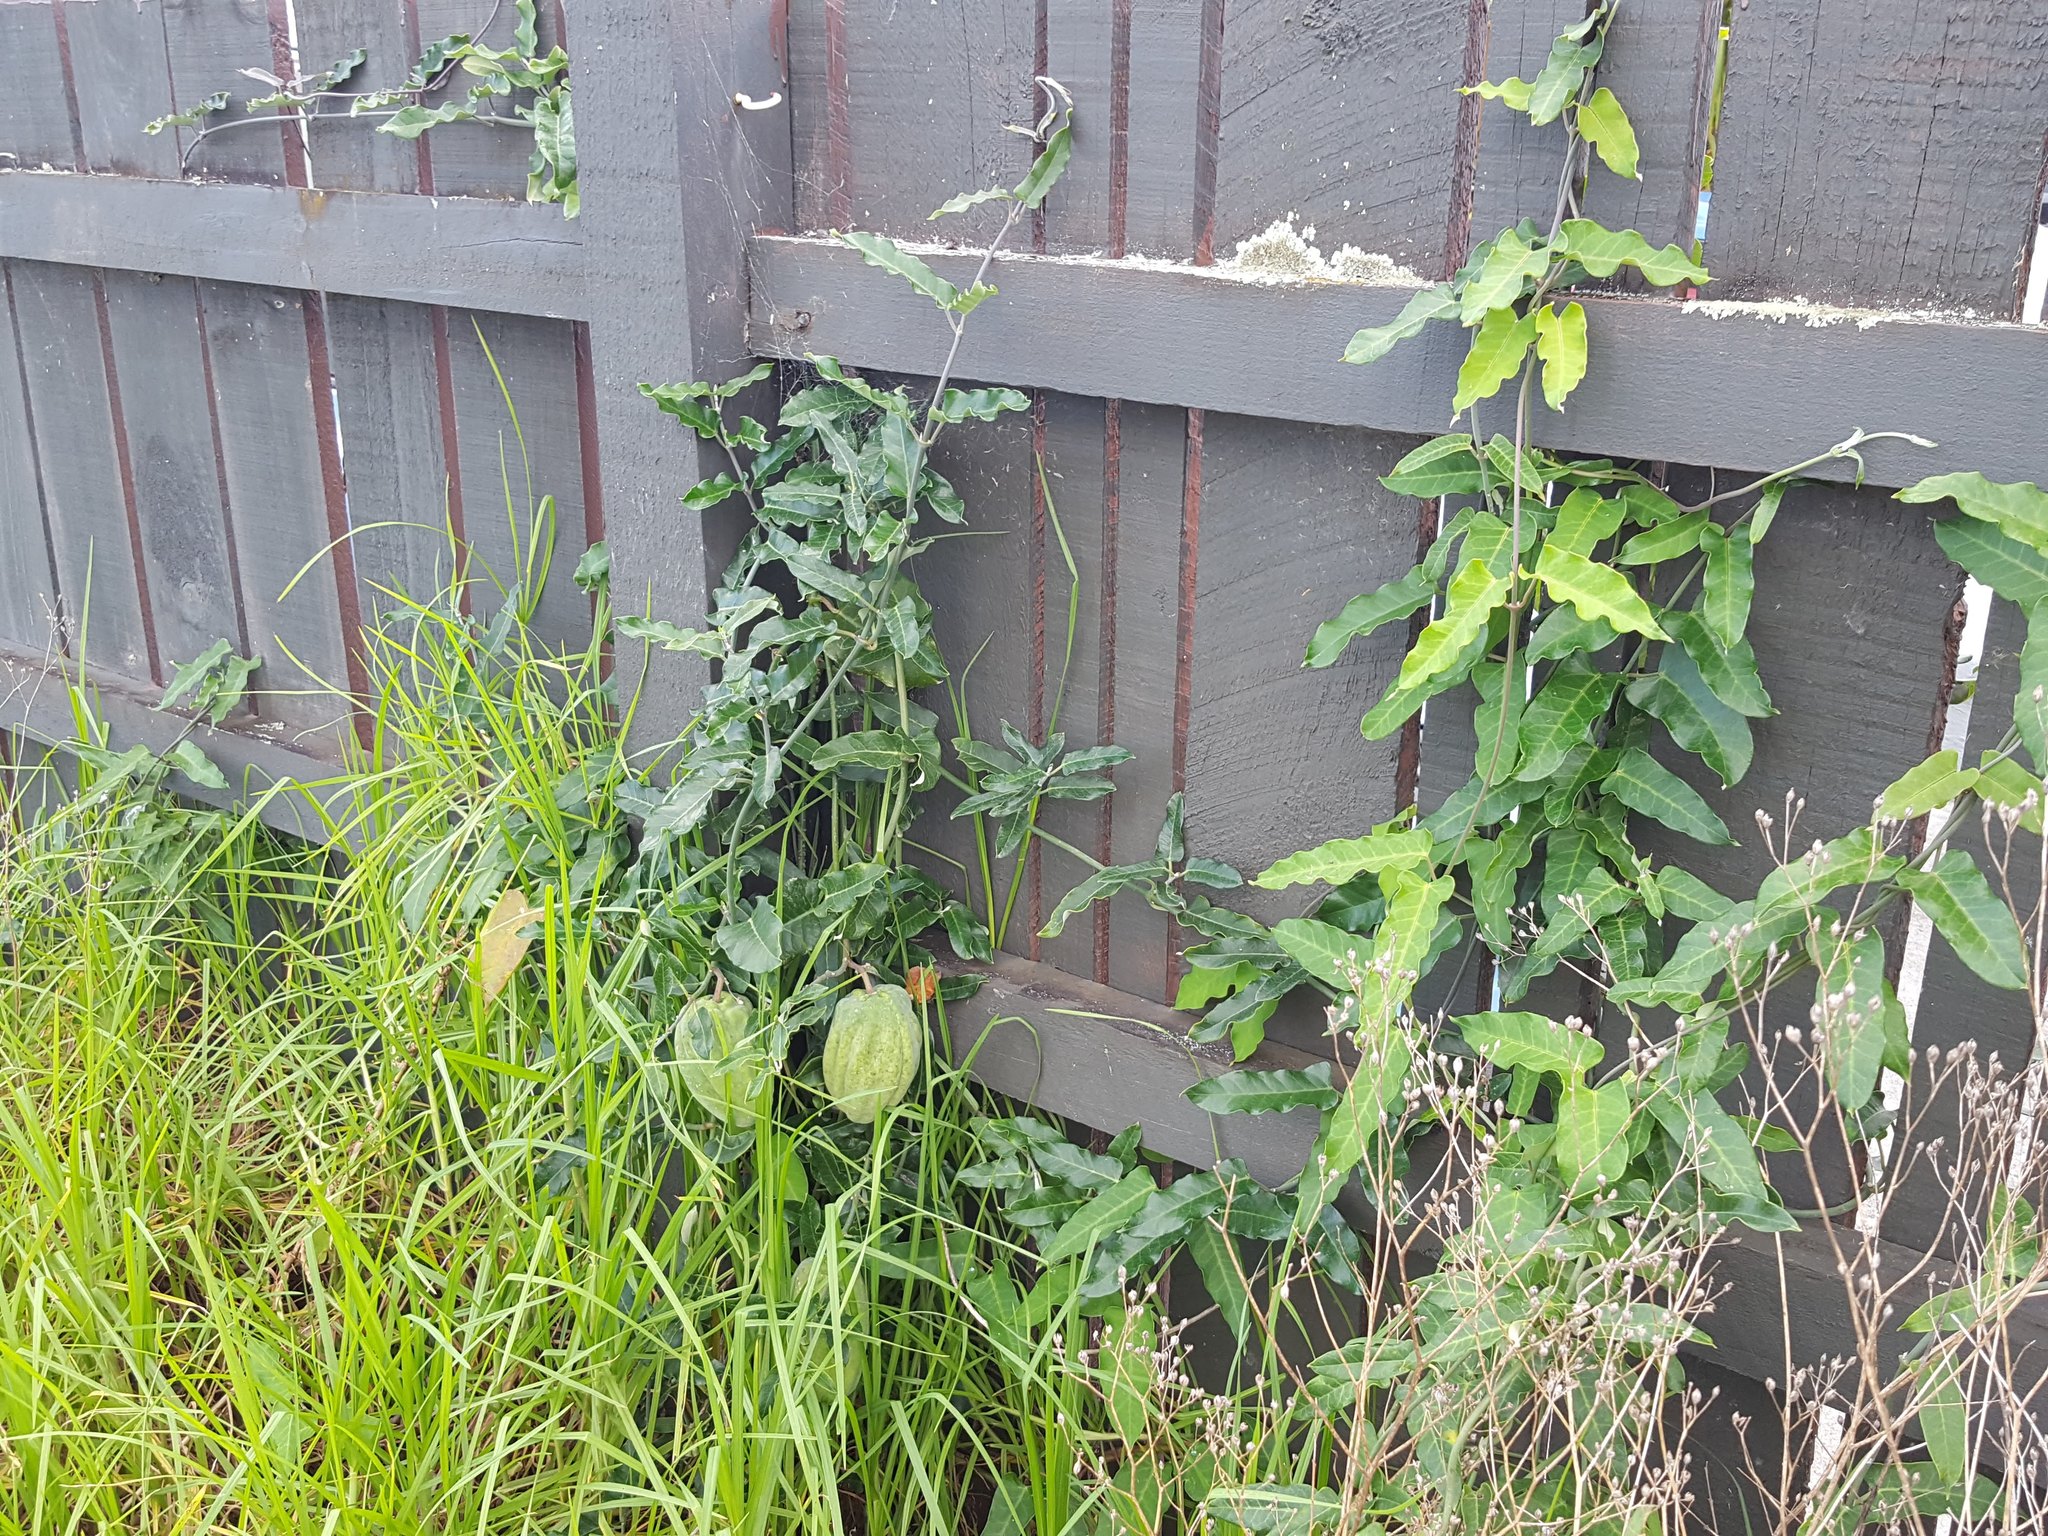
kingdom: Plantae
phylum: Tracheophyta
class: Magnoliopsida
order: Gentianales
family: Apocynaceae
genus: Araujia
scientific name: Araujia sericifera
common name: White bladderflower
